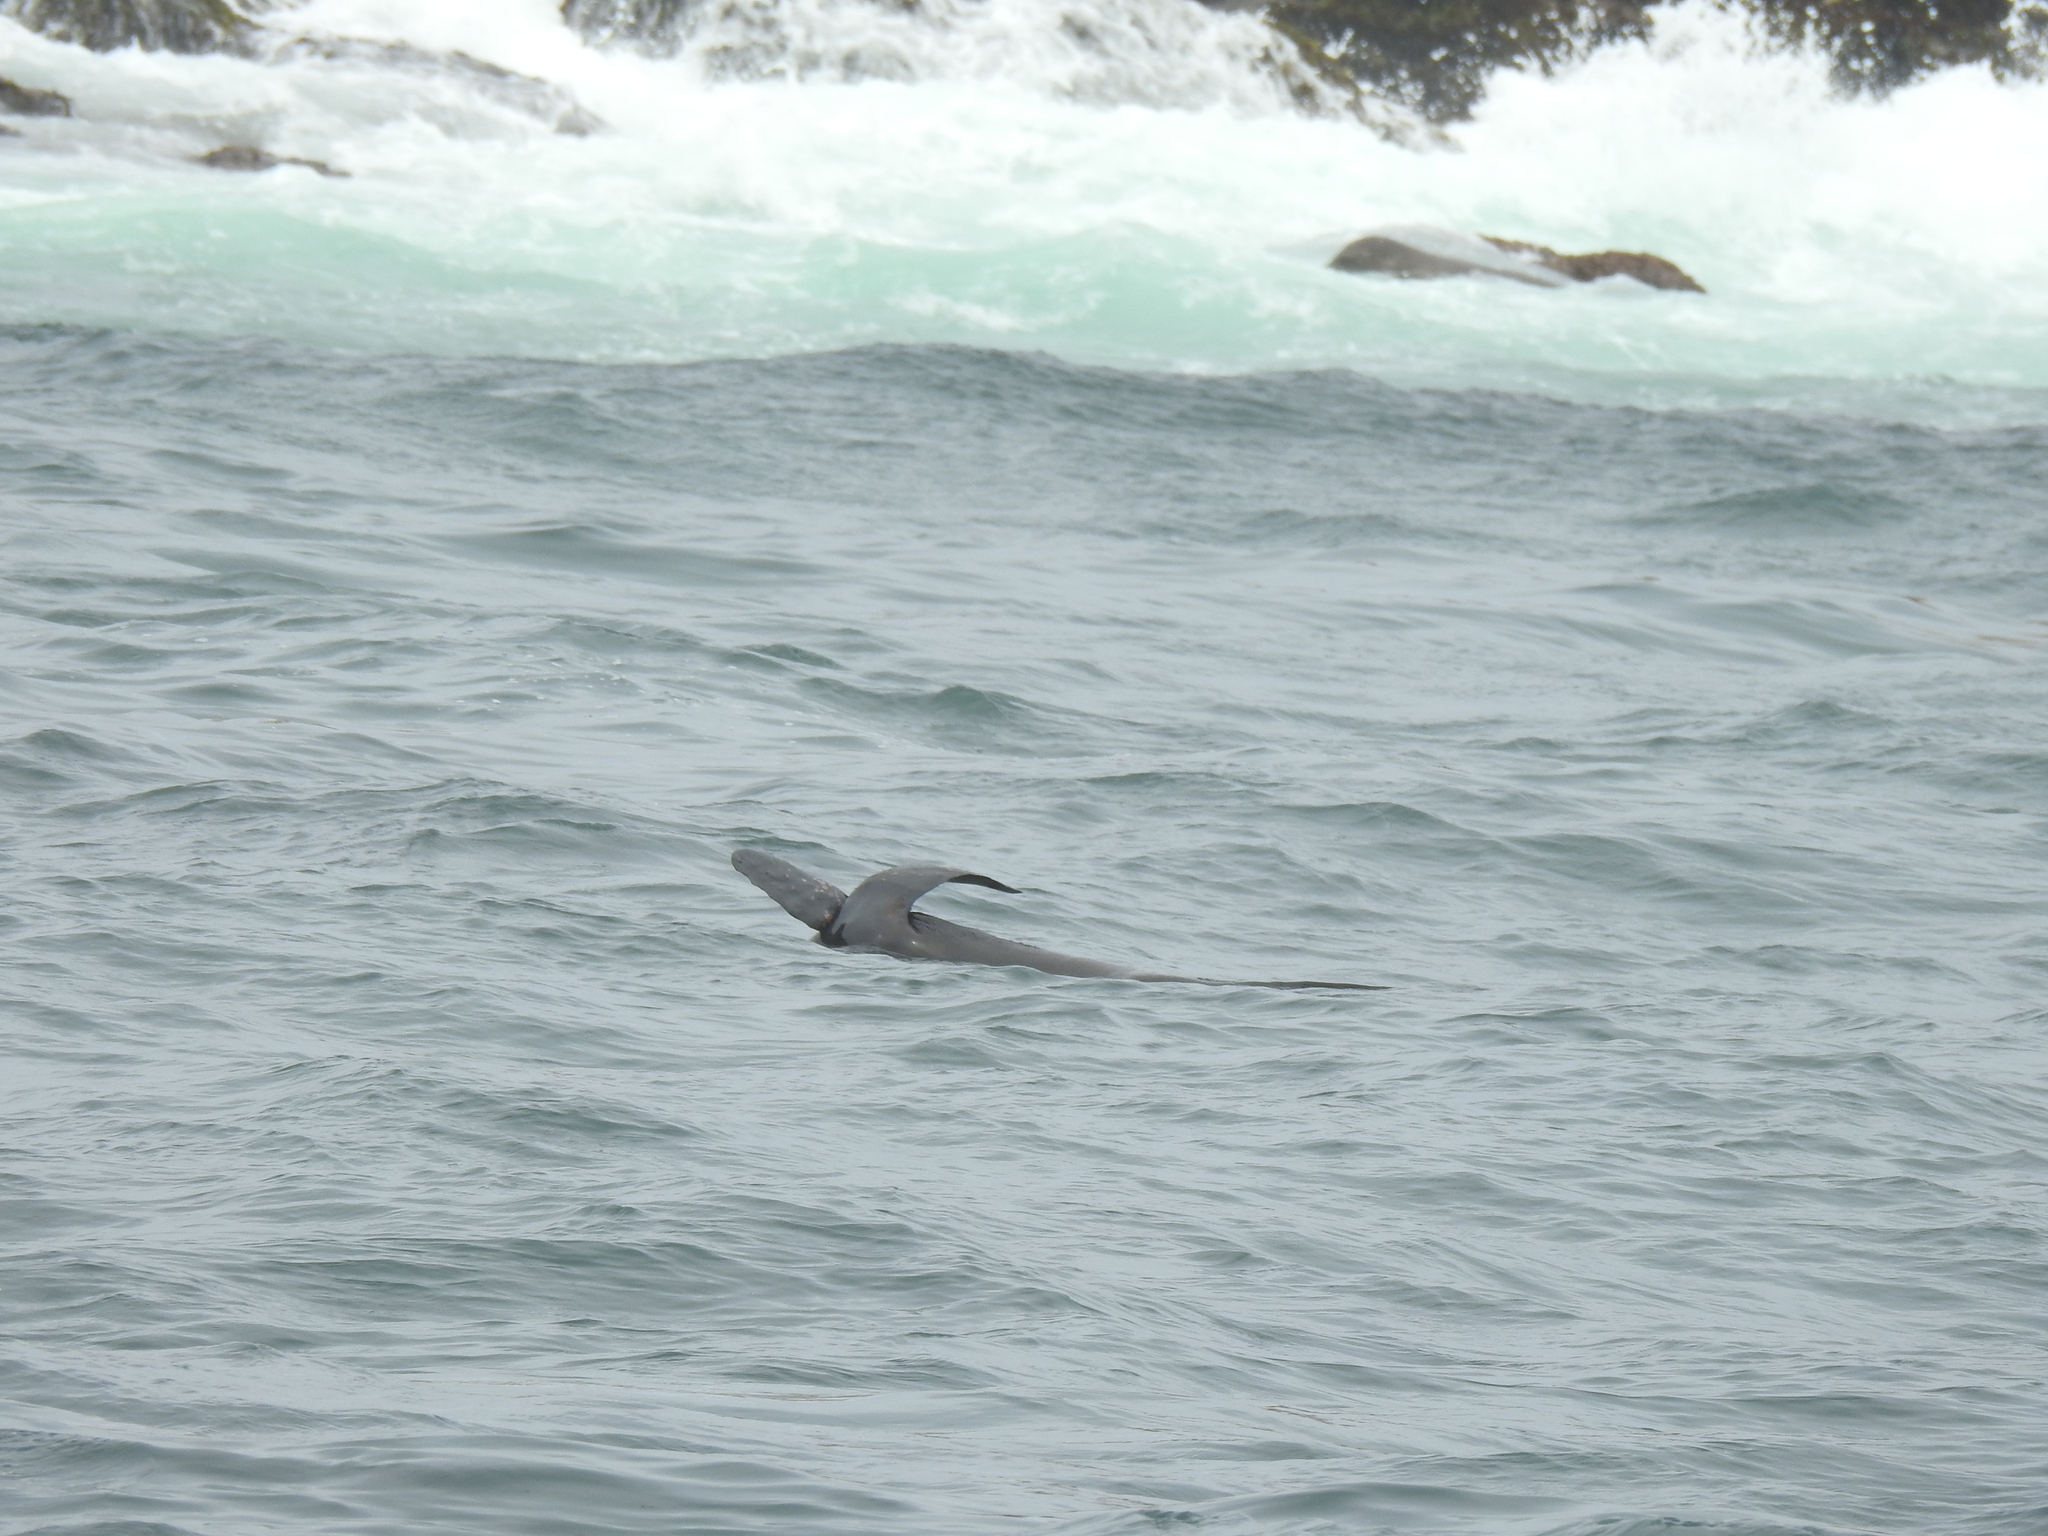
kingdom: Animalia
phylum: Chordata
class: Mammalia
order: Carnivora
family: Otariidae
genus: Zalophus
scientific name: Zalophus californianus
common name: California sea lion
